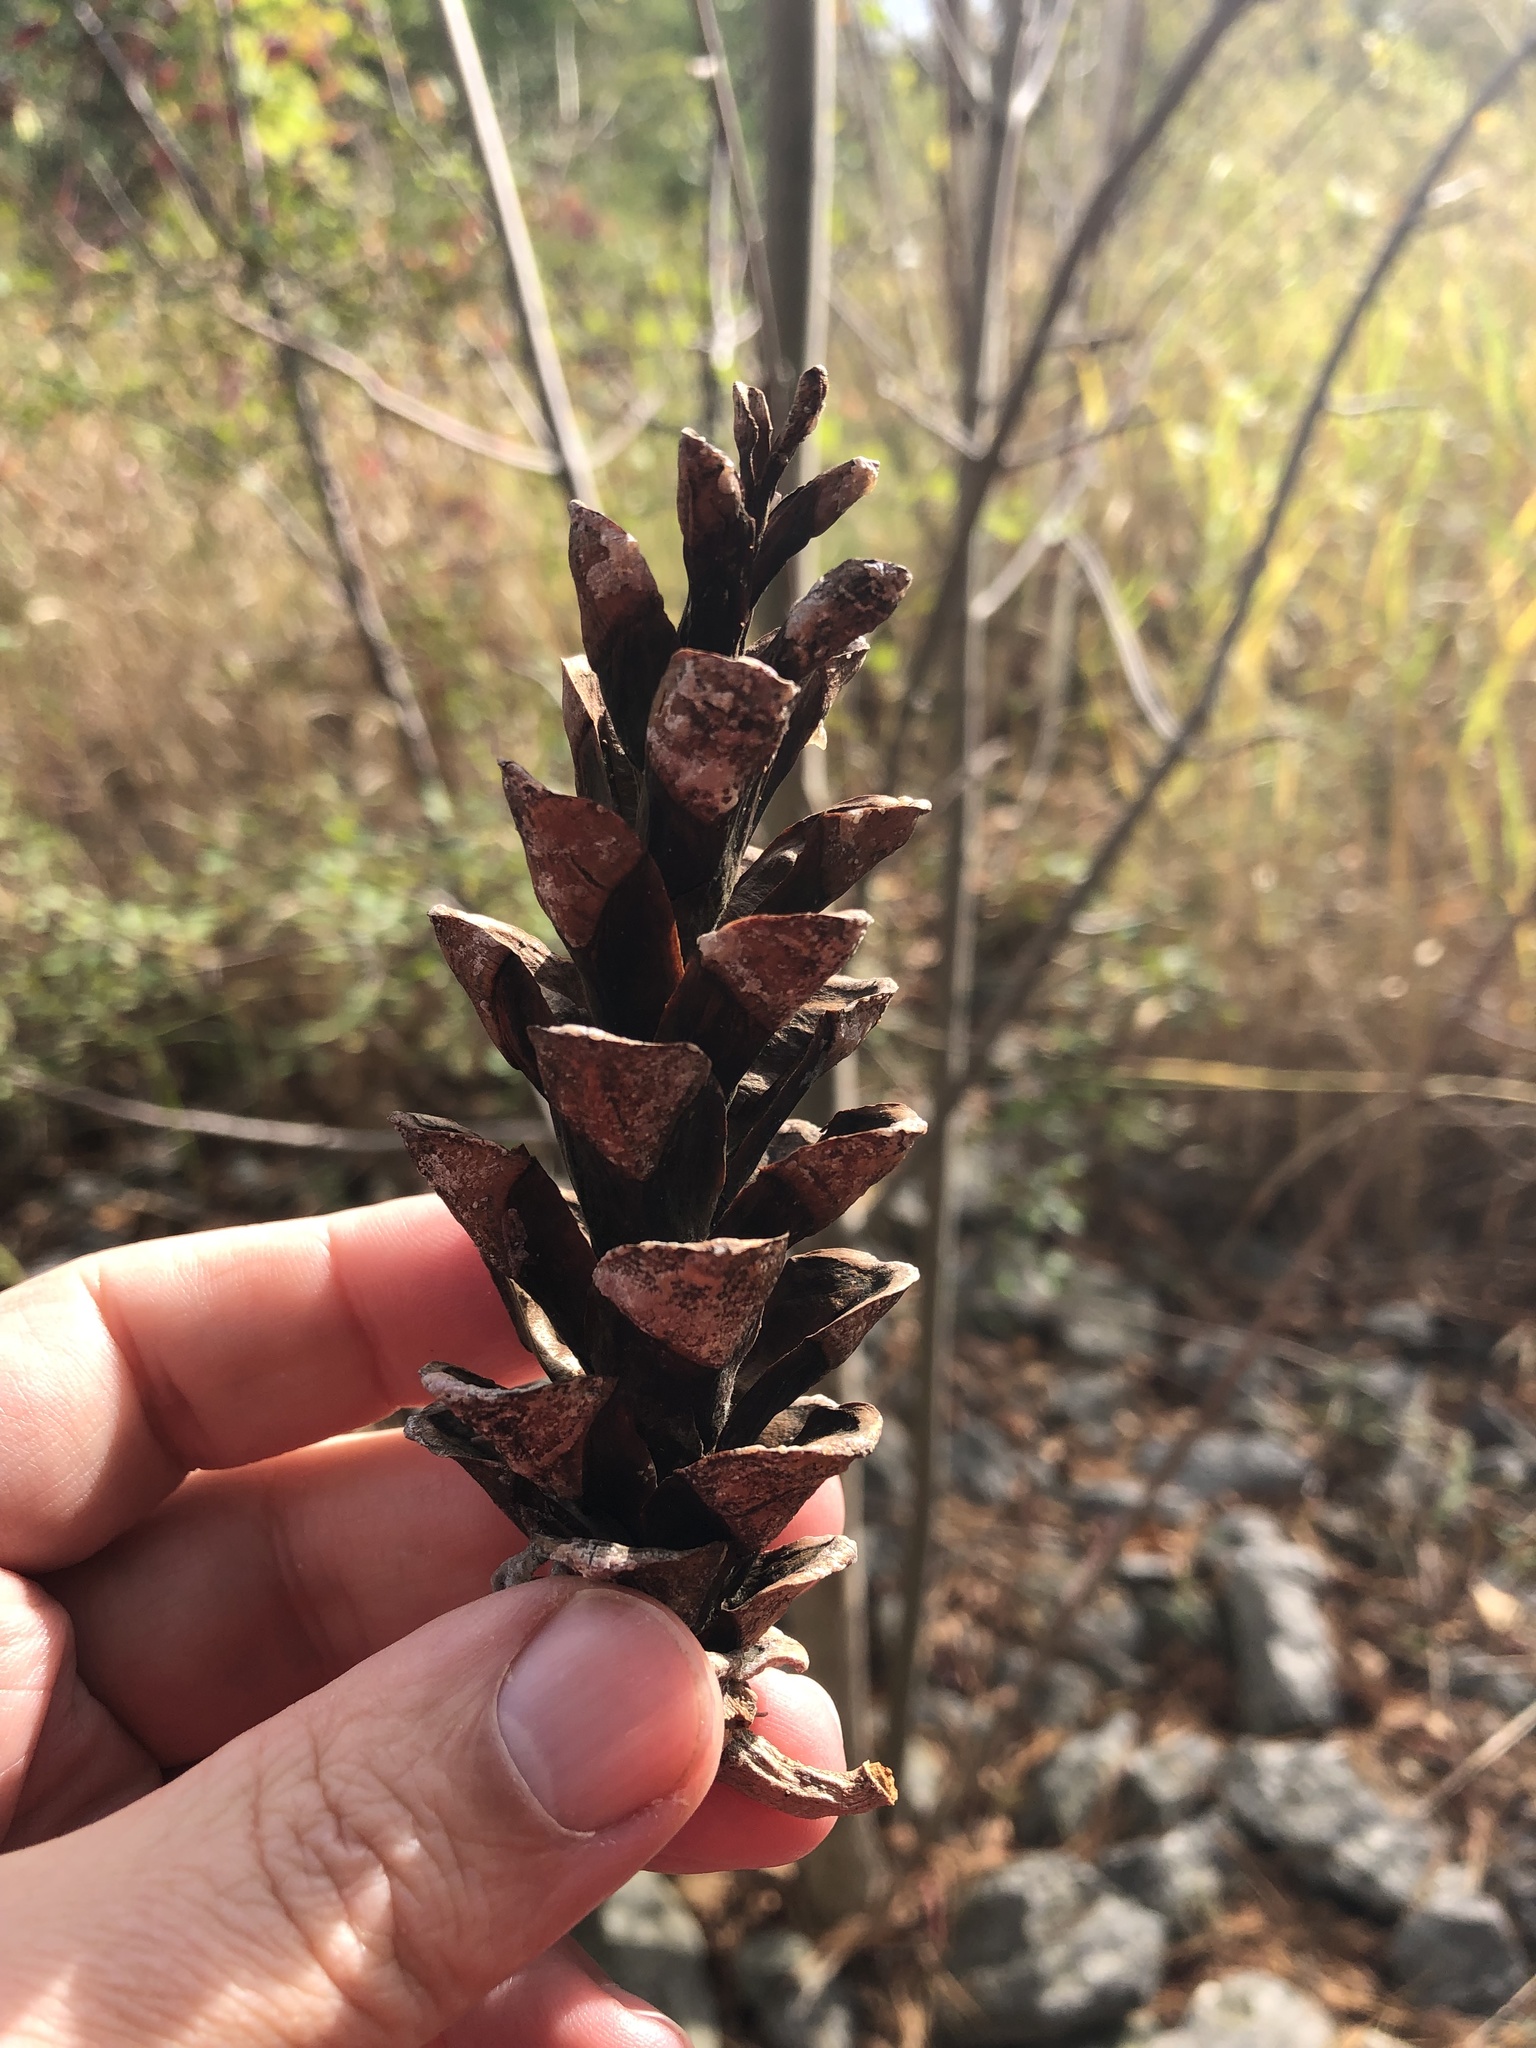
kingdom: Plantae
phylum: Tracheophyta
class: Pinopsida
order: Pinales
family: Pinaceae
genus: Pinus
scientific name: Pinus strobus
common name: Weymouth pine
